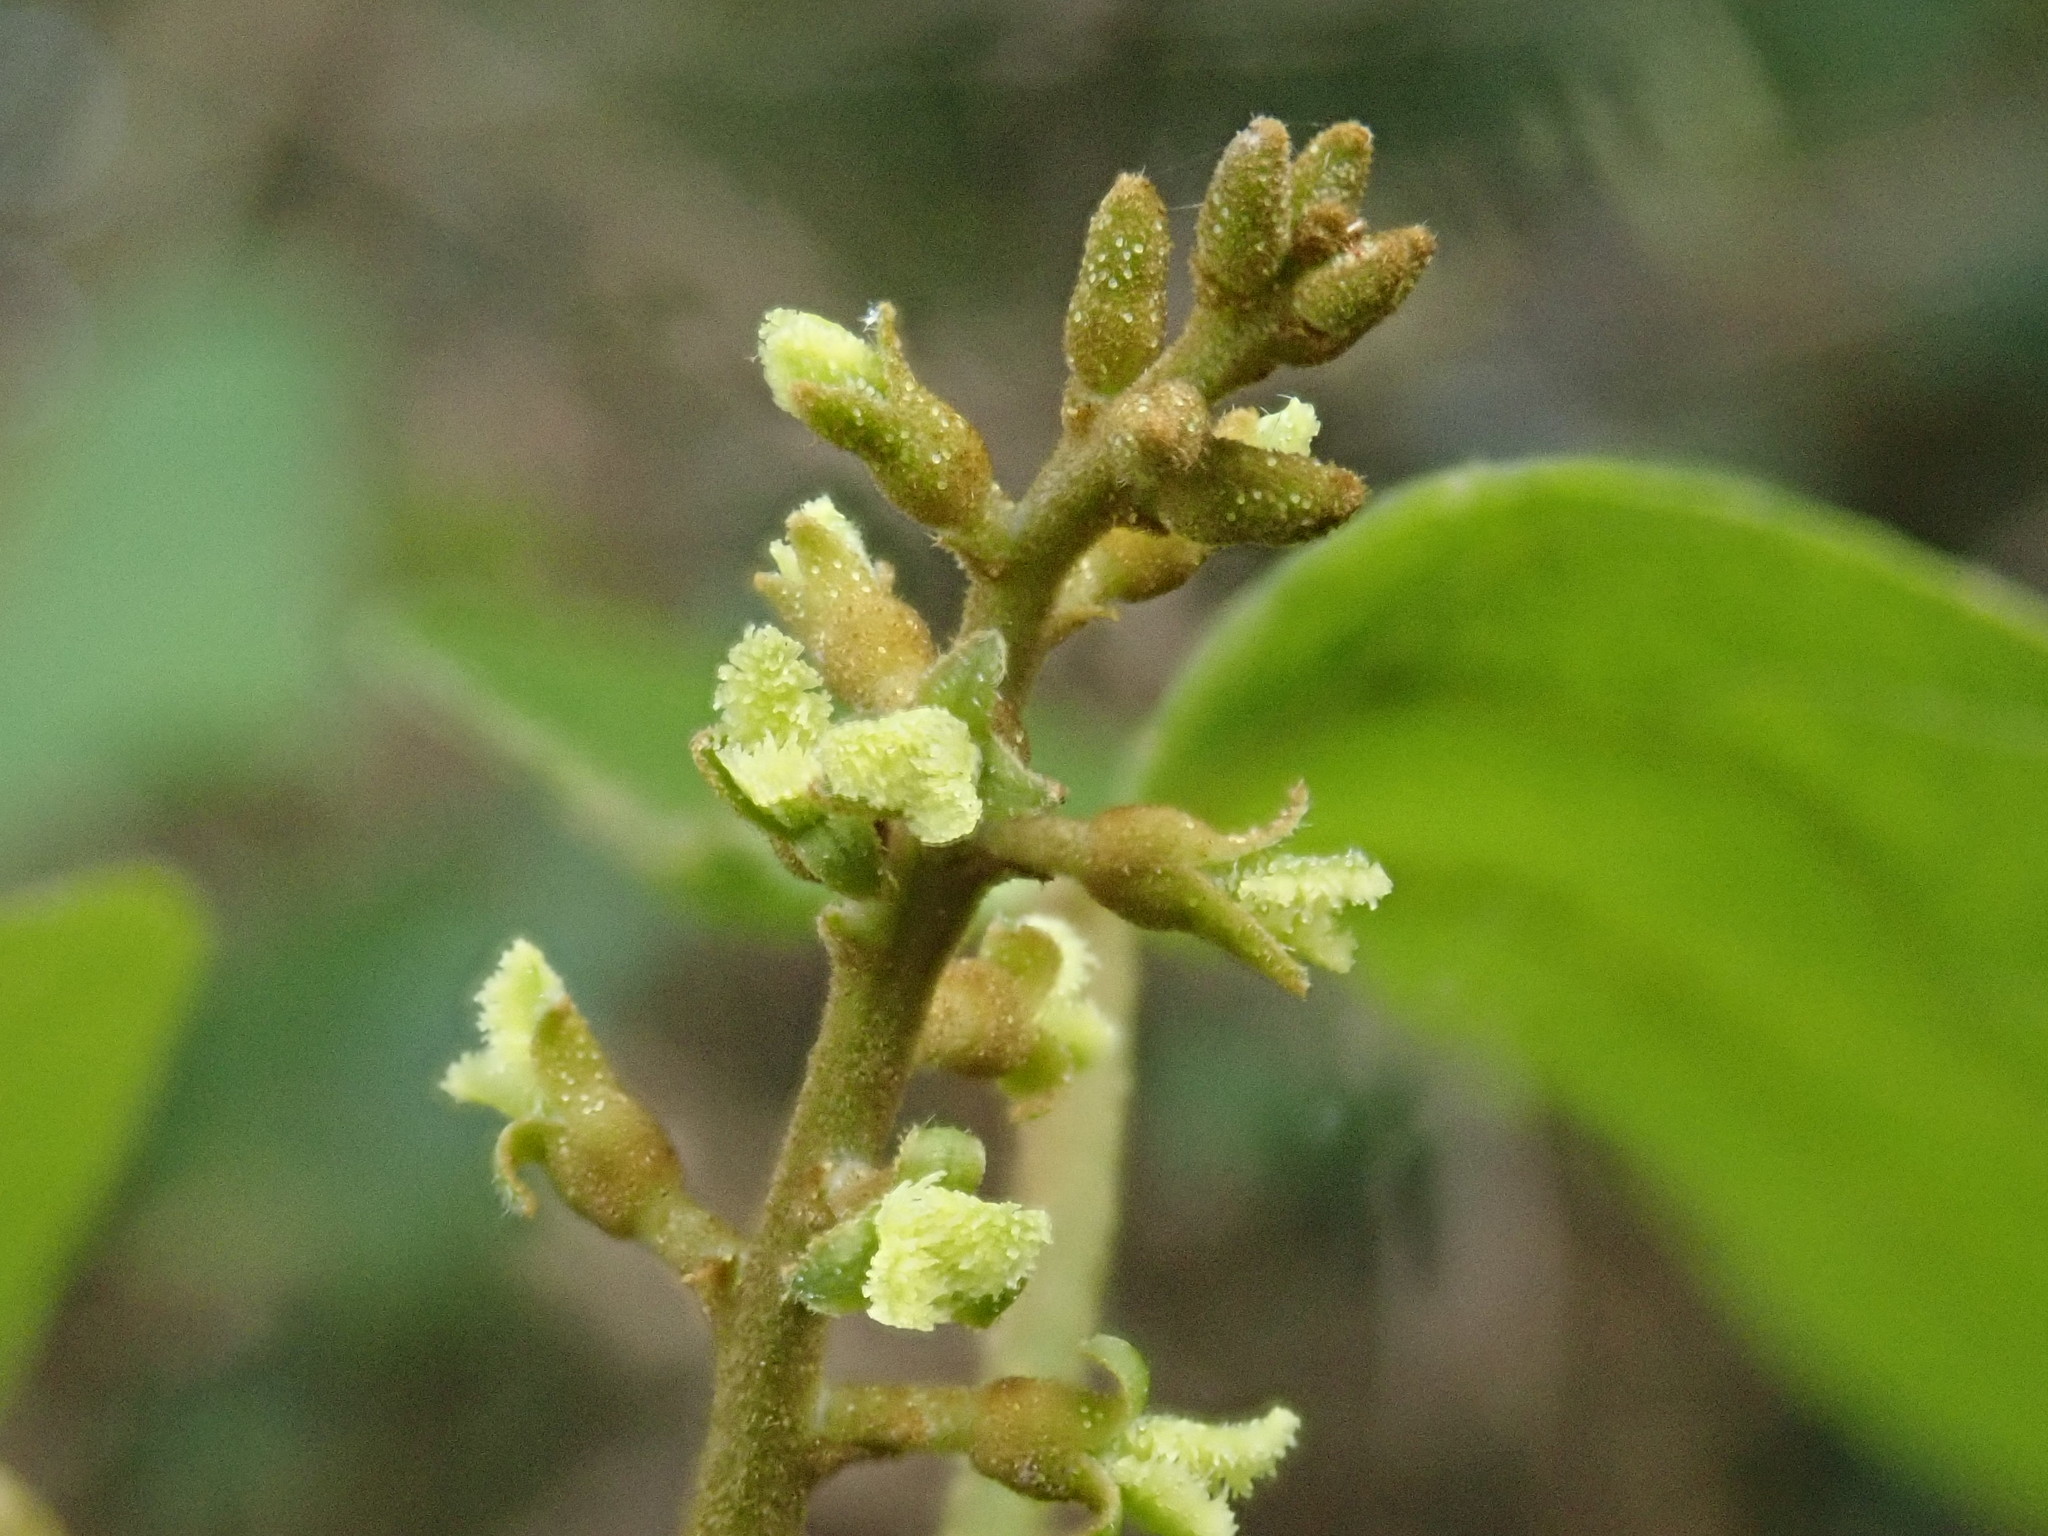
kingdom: Plantae
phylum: Tracheophyta
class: Magnoliopsida
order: Malpighiales
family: Euphorbiaceae
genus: Mallotus
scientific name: Mallotus repandus
